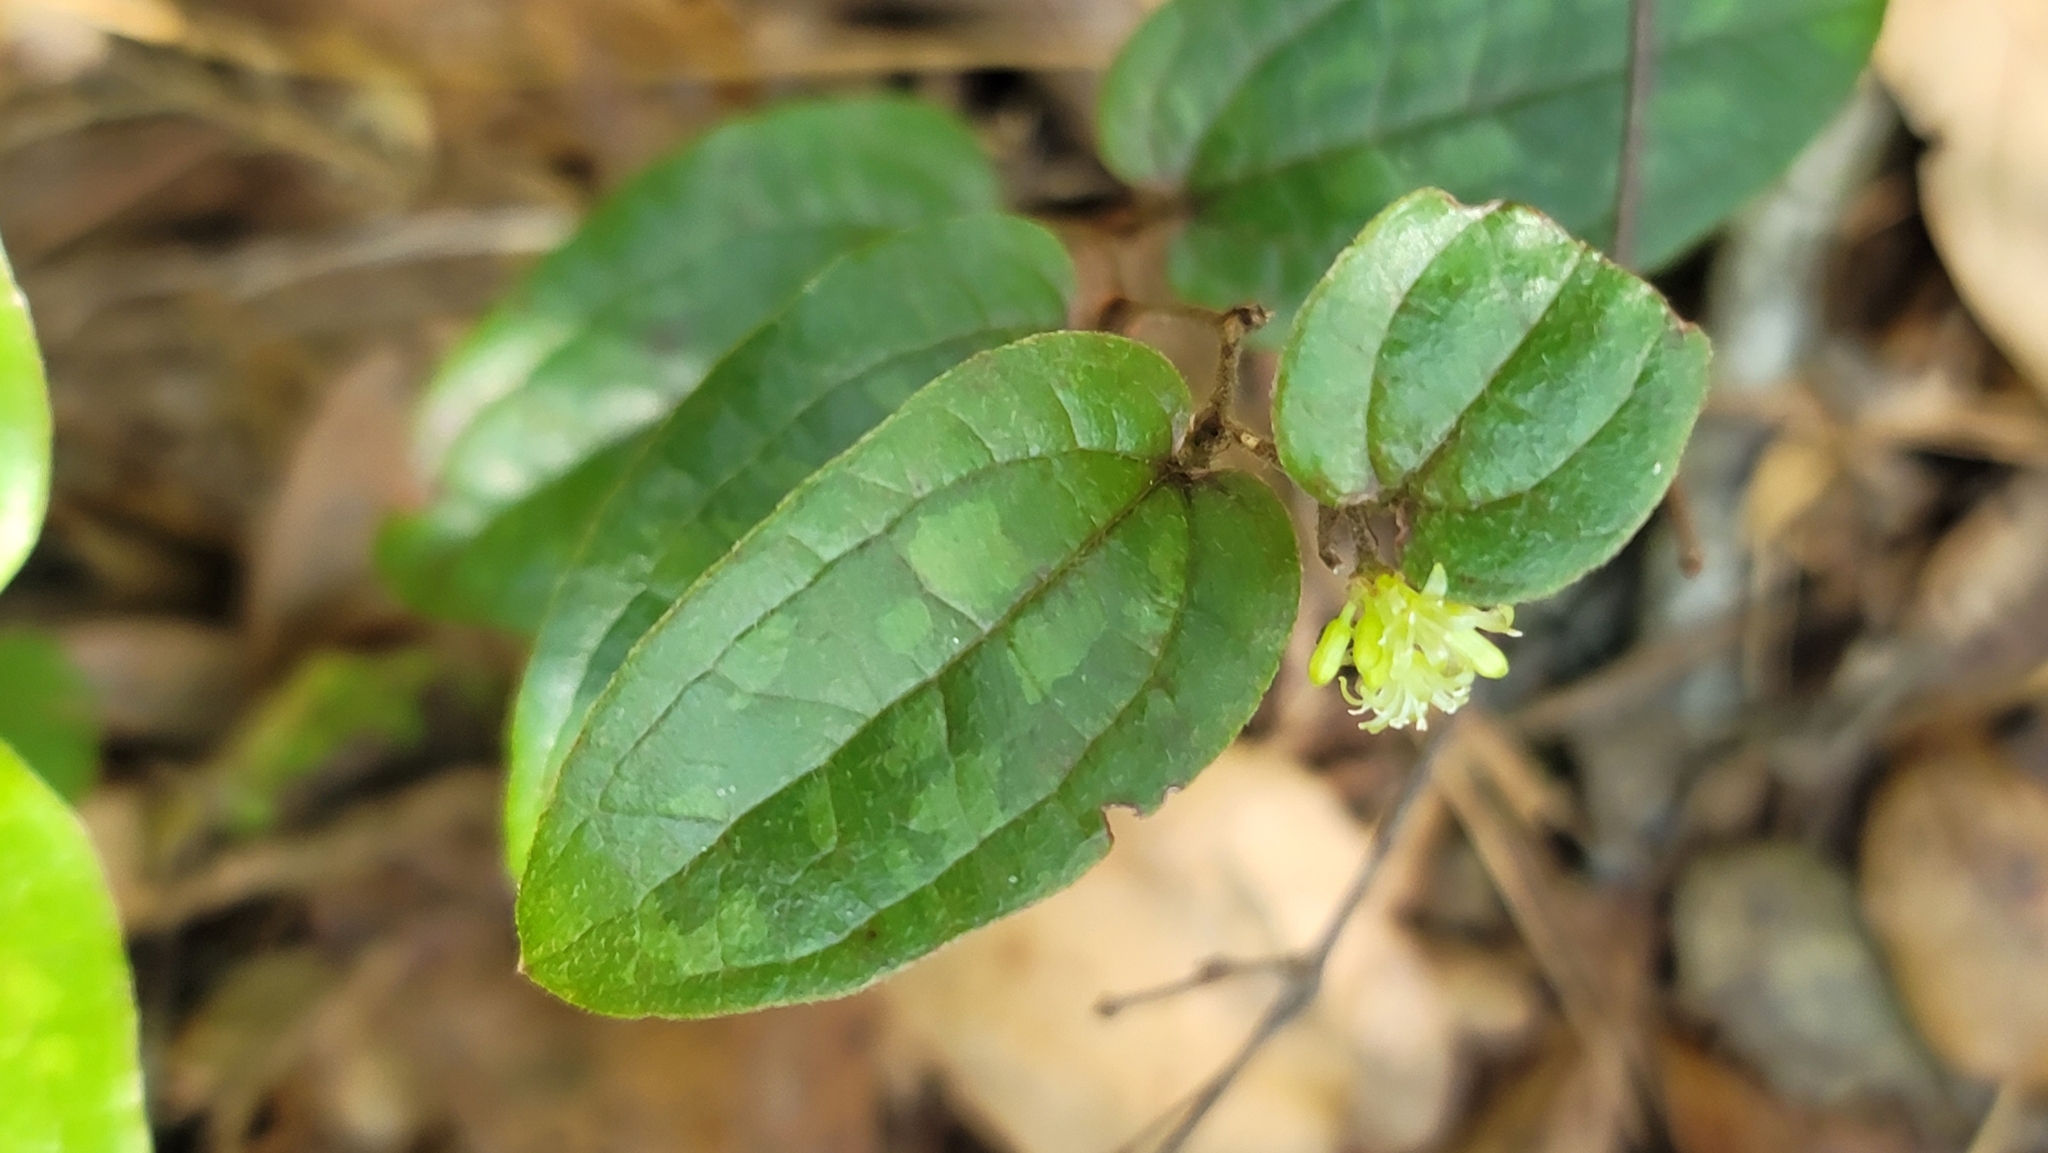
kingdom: Plantae
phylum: Tracheophyta
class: Liliopsida
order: Liliales
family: Smilacaceae
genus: Smilax
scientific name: Smilax pumila
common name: Sarsaparilla-vine
